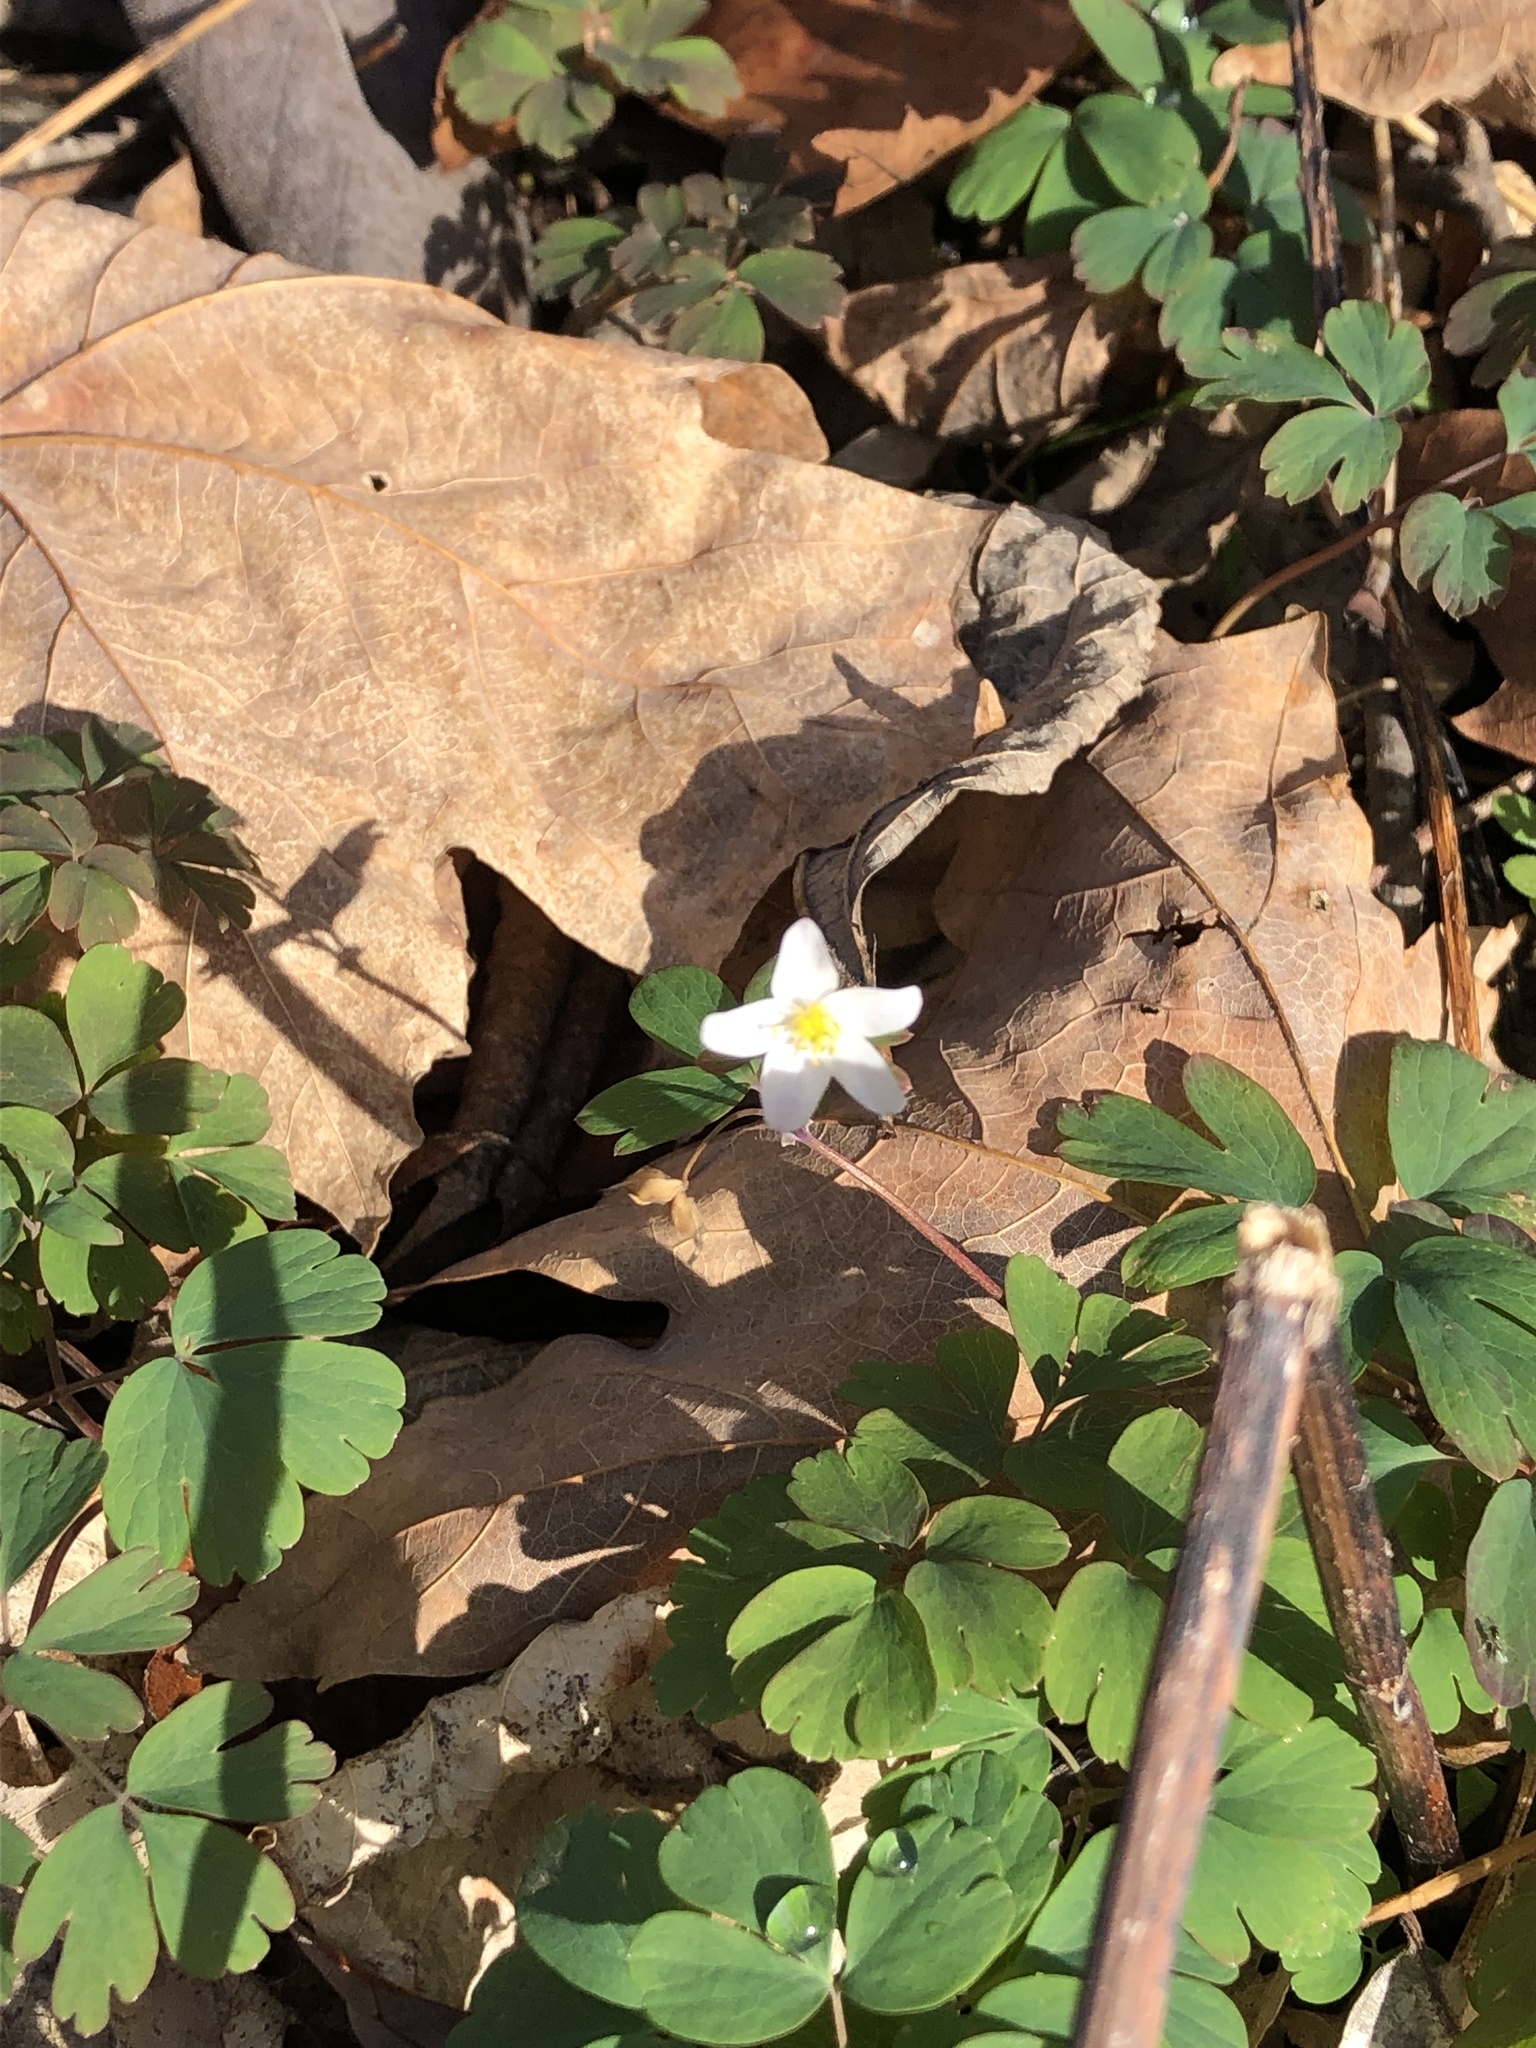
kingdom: Plantae
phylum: Tracheophyta
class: Magnoliopsida
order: Ranunculales
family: Ranunculaceae
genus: Enemion
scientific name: Enemion biternatum
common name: Eastern false rue-anemone
